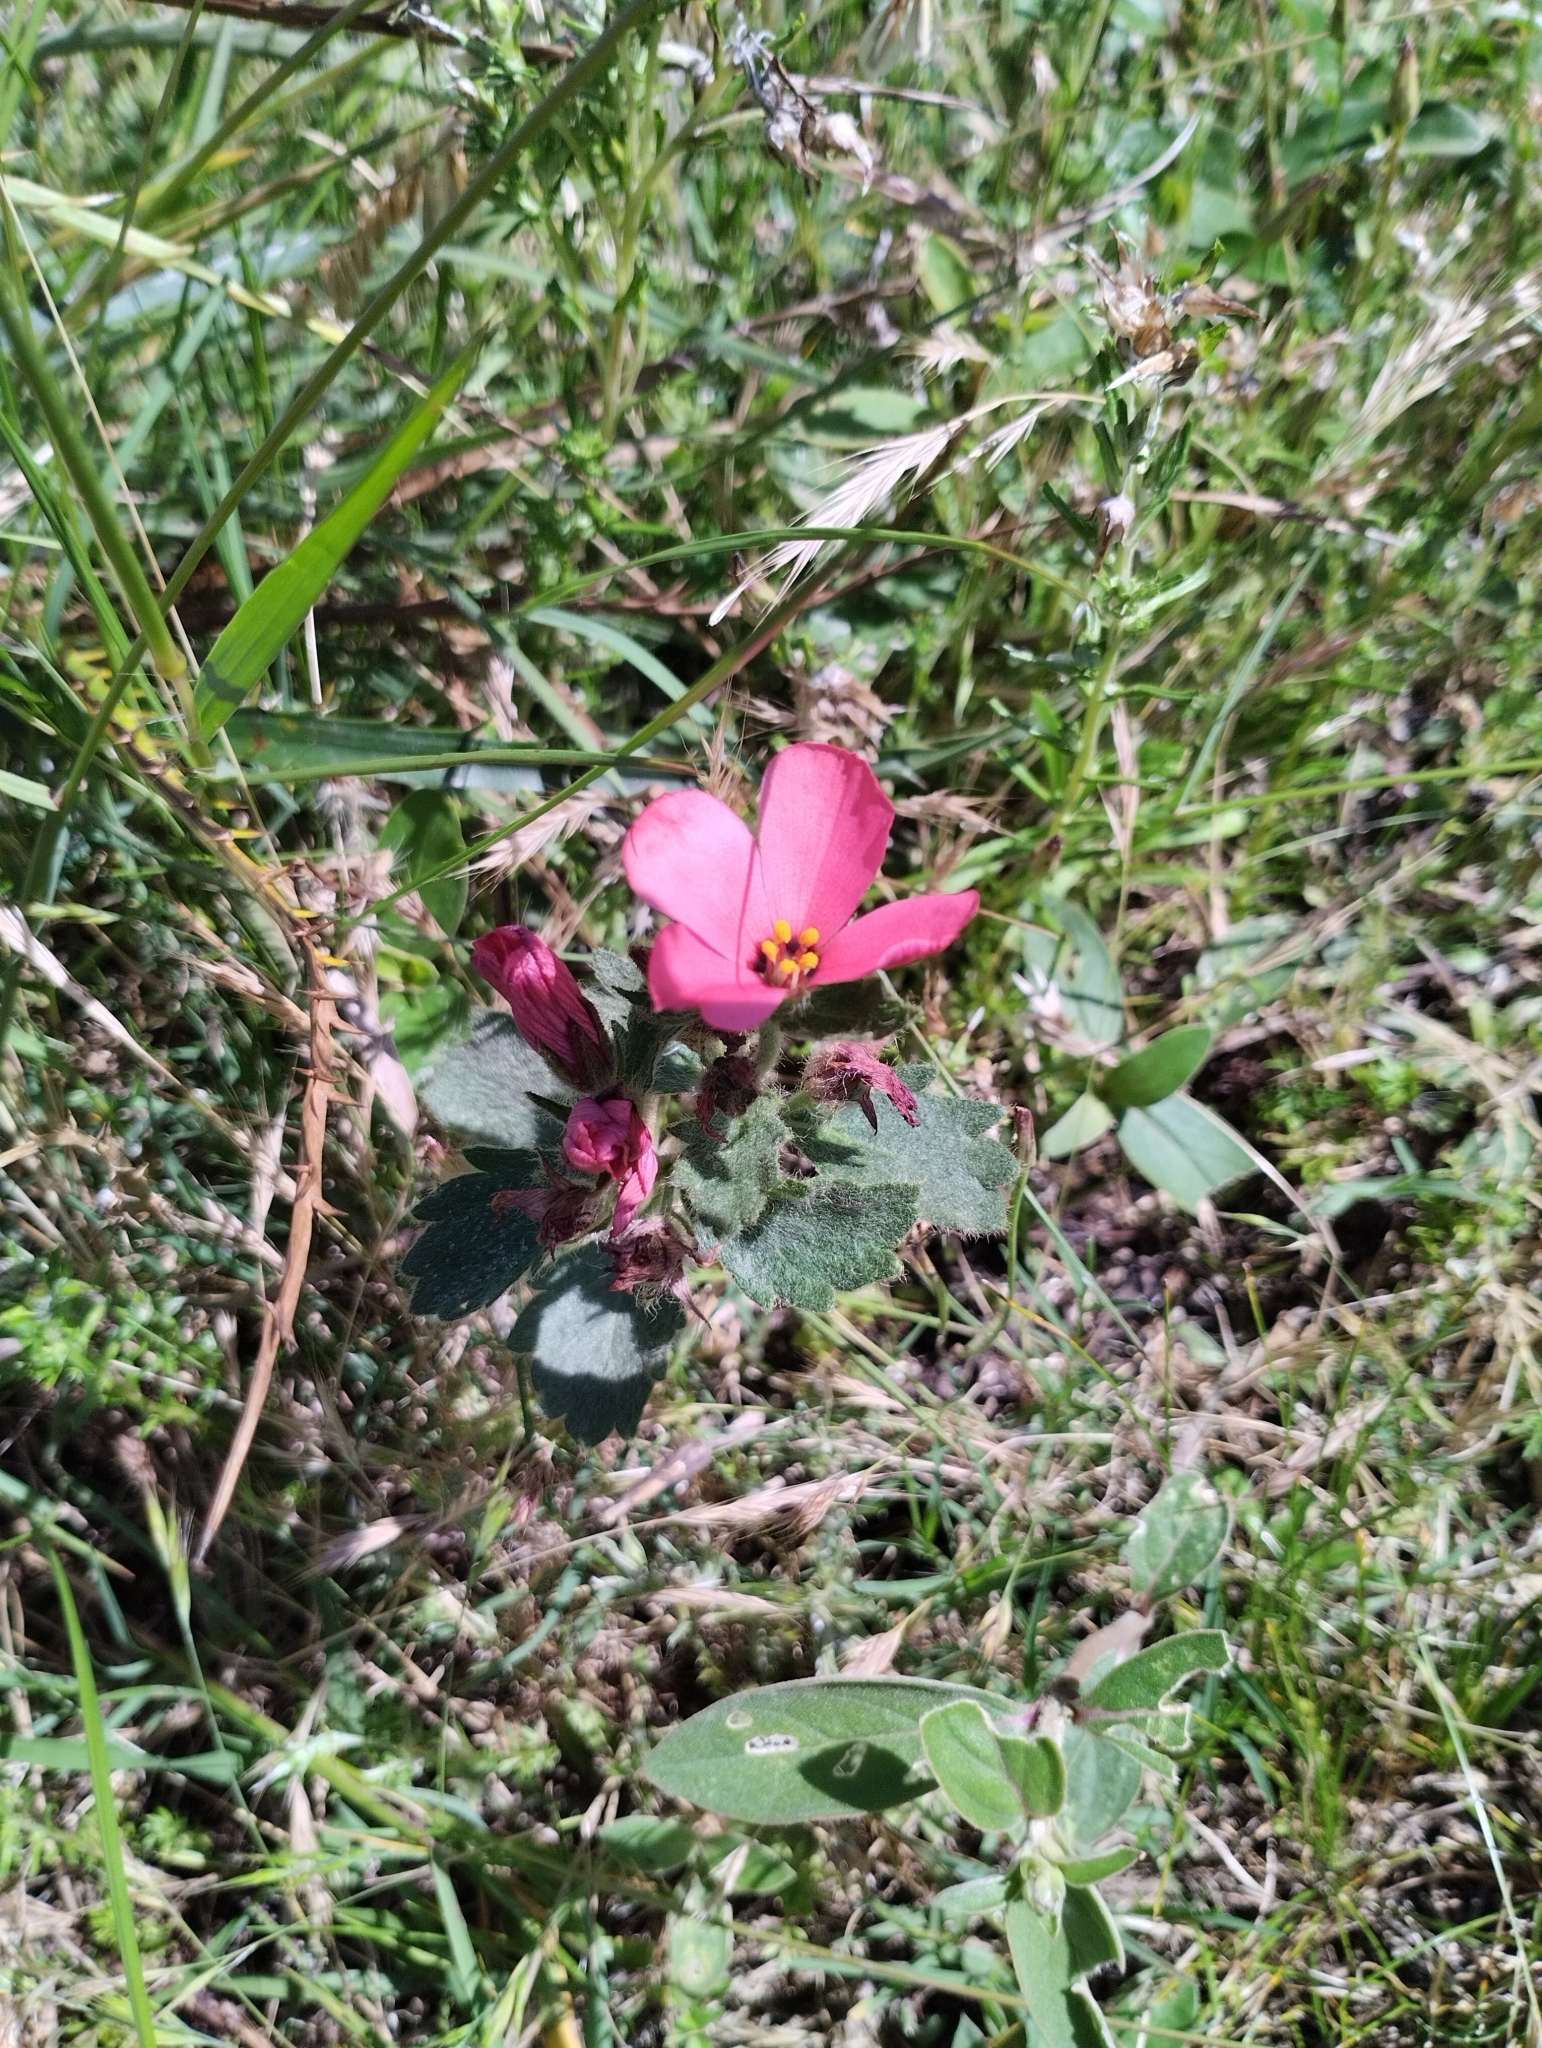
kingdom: Plantae
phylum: Tracheophyta
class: Magnoliopsida
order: Malpighiales
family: Turneraceae
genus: Turnera
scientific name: Turnera sidoides
